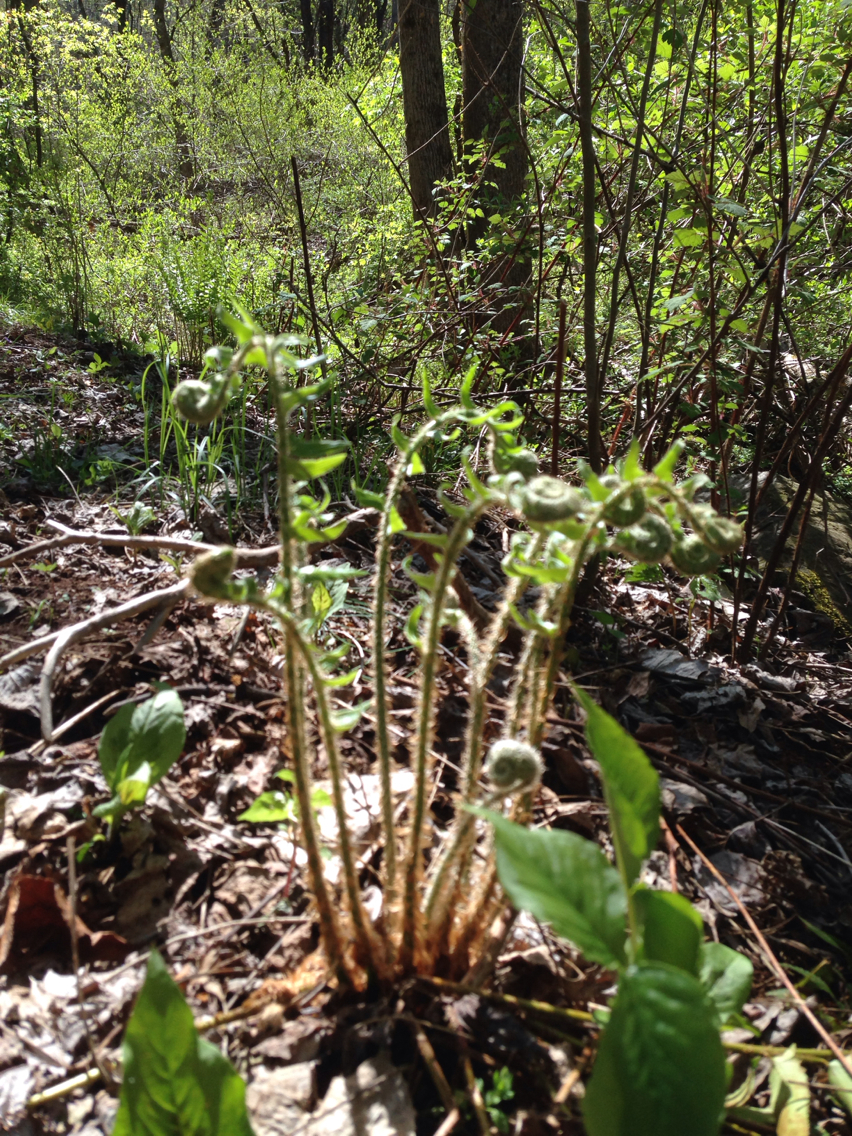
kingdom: Plantae
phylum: Tracheophyta
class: Polypodiopsida
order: Polypodiales
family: Dryopteridaceae
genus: Polystichum
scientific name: Polystichum acrostichoides
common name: Christmas fern
